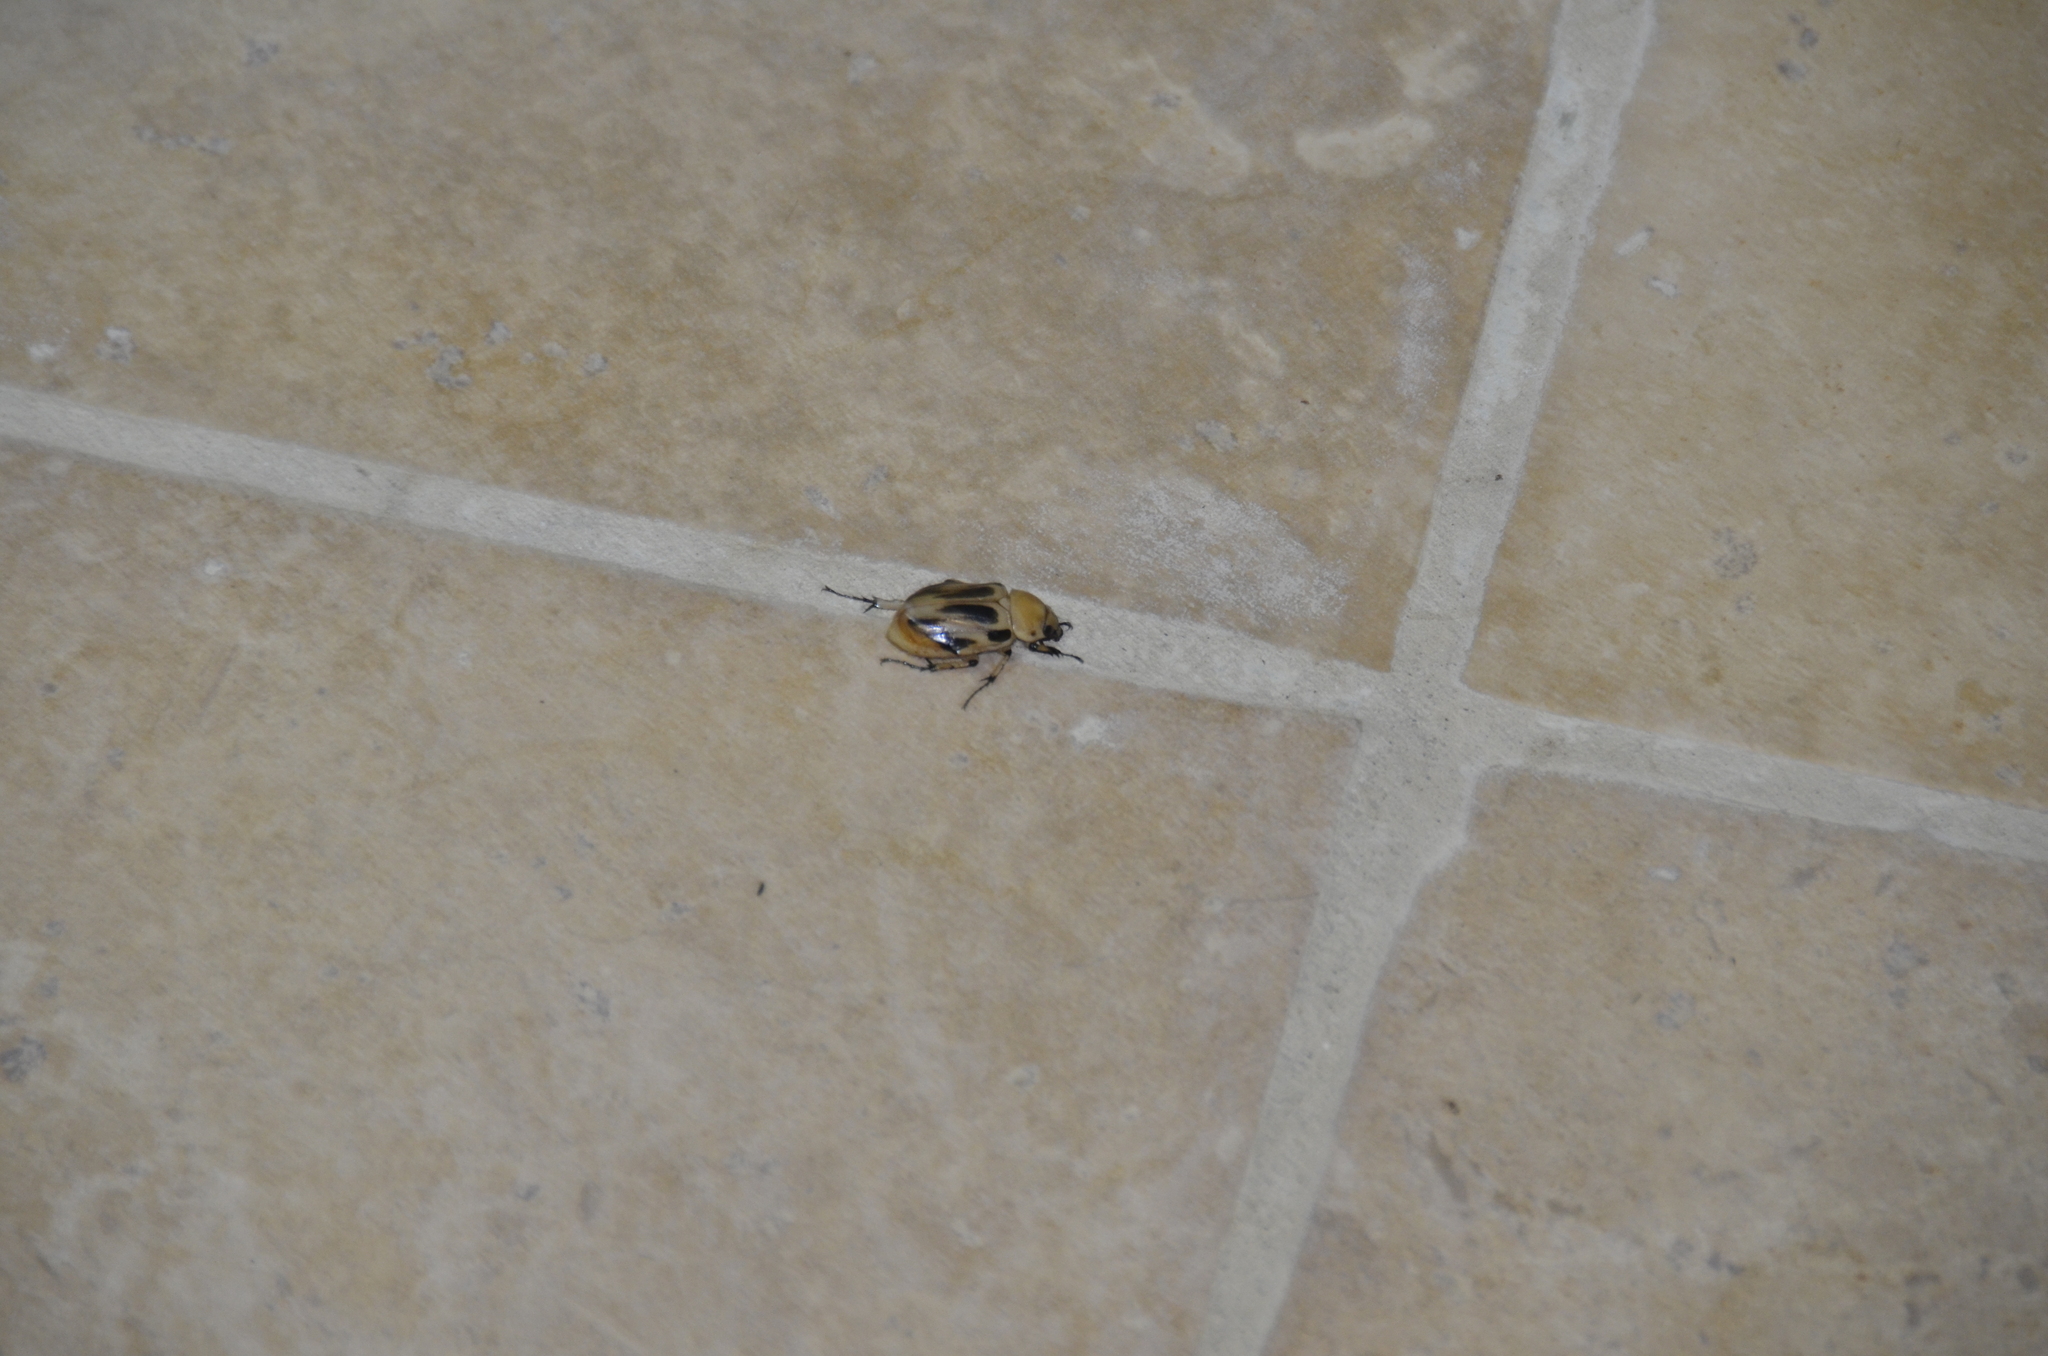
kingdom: Animalia
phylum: Arthropoda
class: Insecta
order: Coleoptera
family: Scarabaeidae
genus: Ancognatha
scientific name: Ancognatha vulgaris
